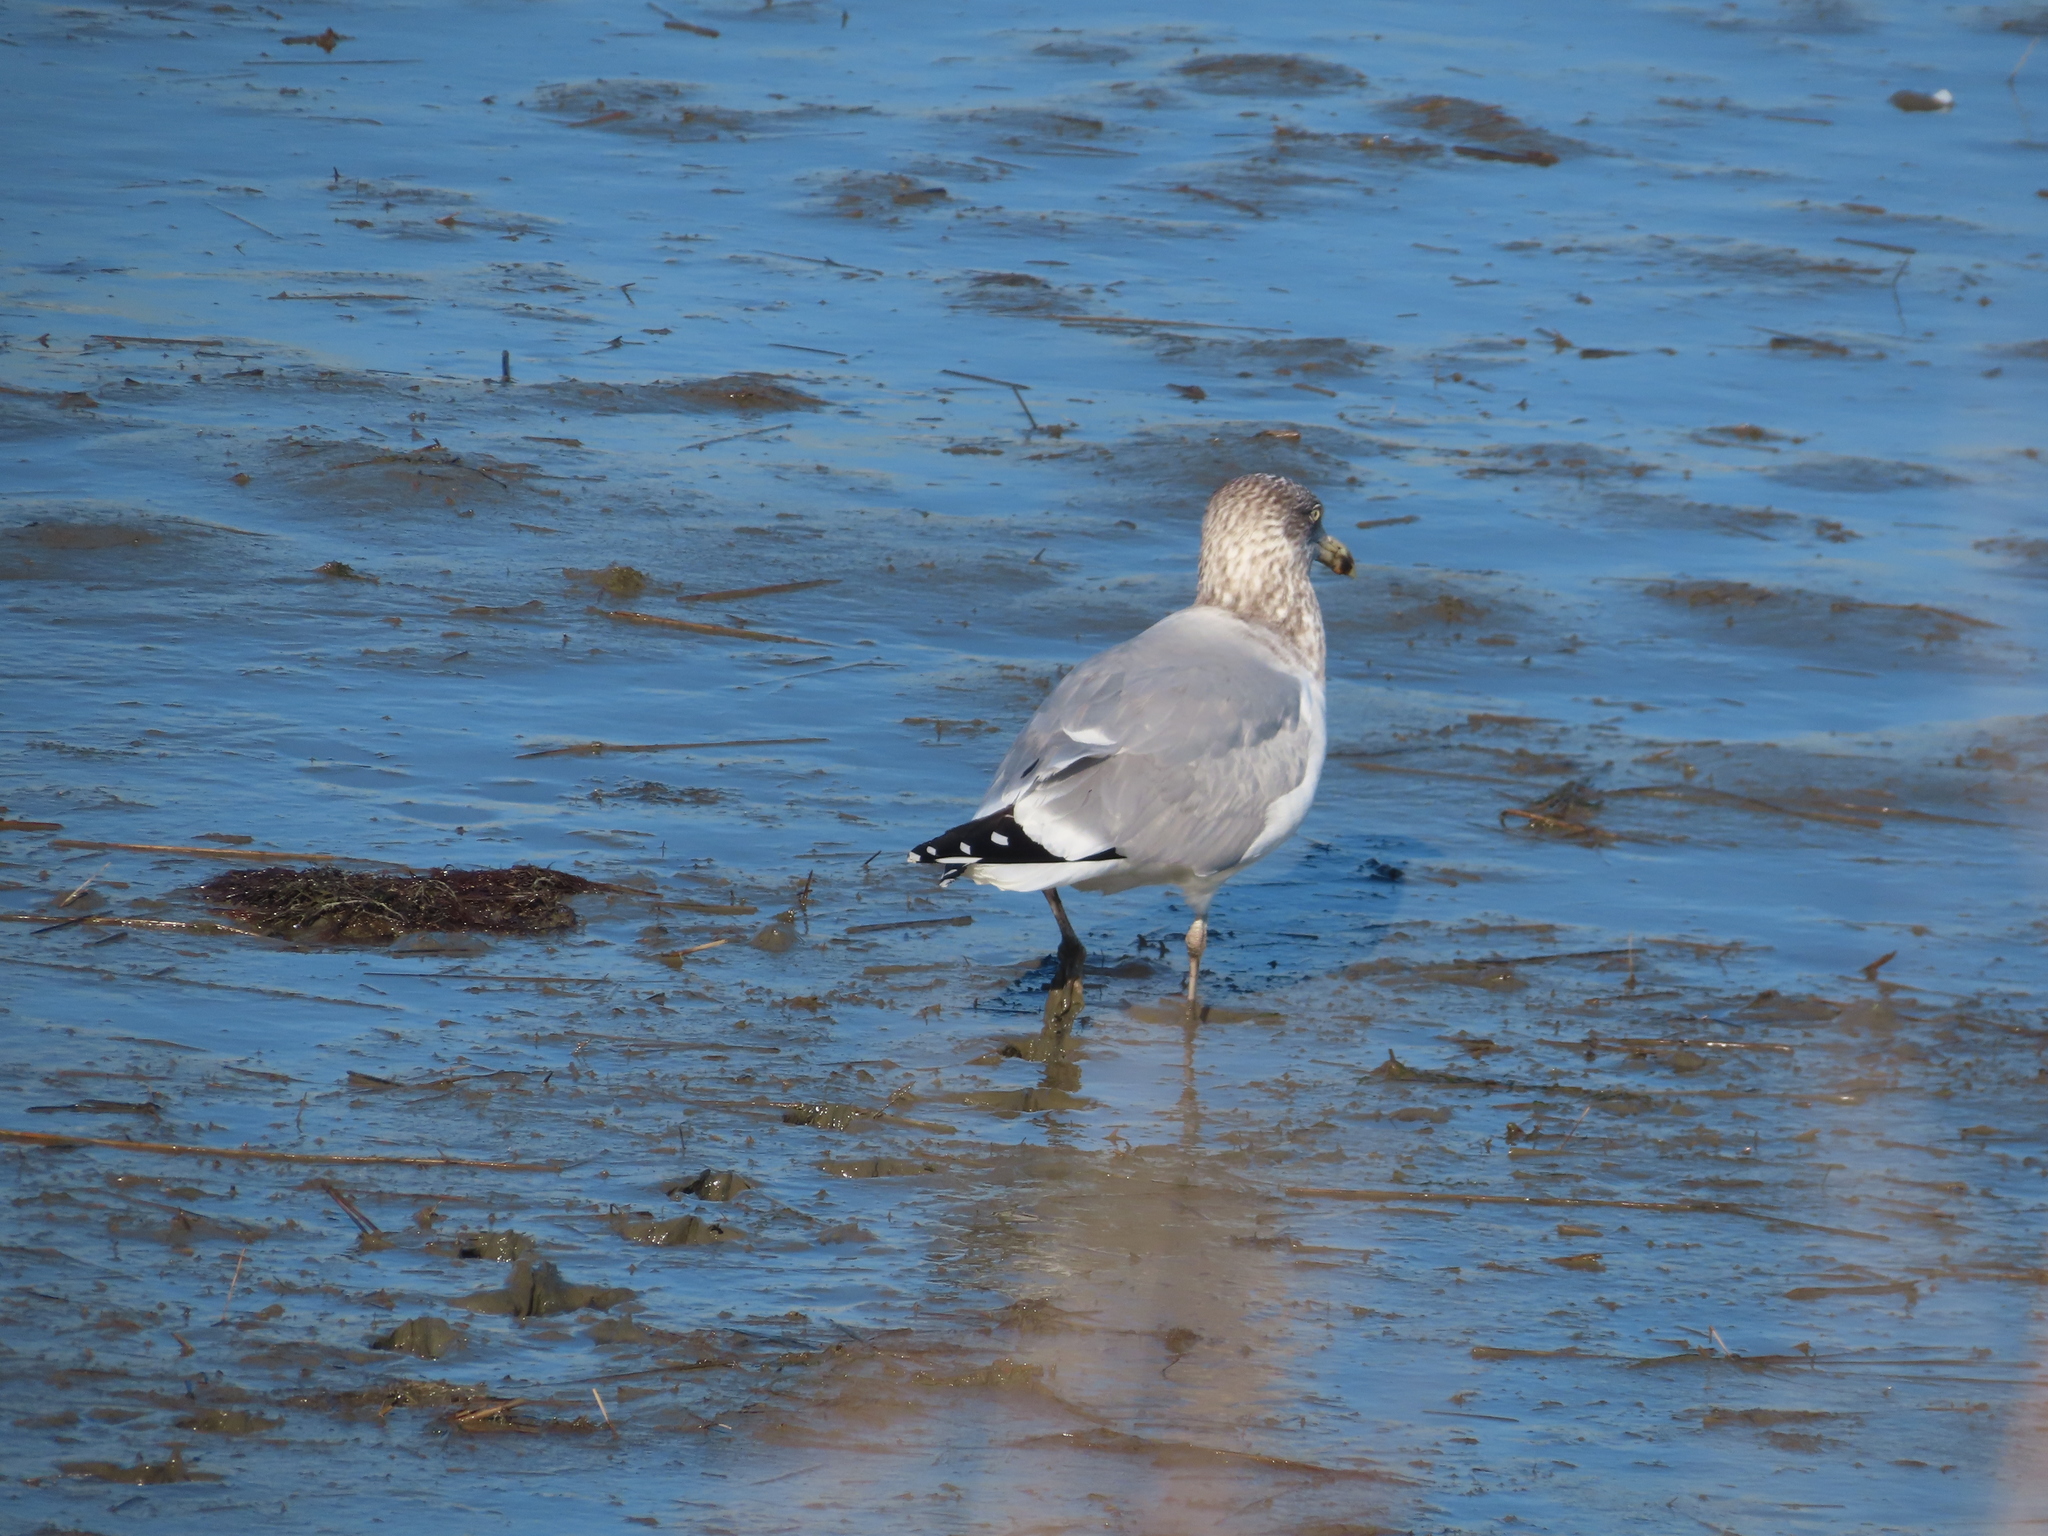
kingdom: Animalia
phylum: Chordata
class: Aves
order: Charadriiformes
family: Laridae
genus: Larus
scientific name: Larus argentatus
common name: Herring gull
